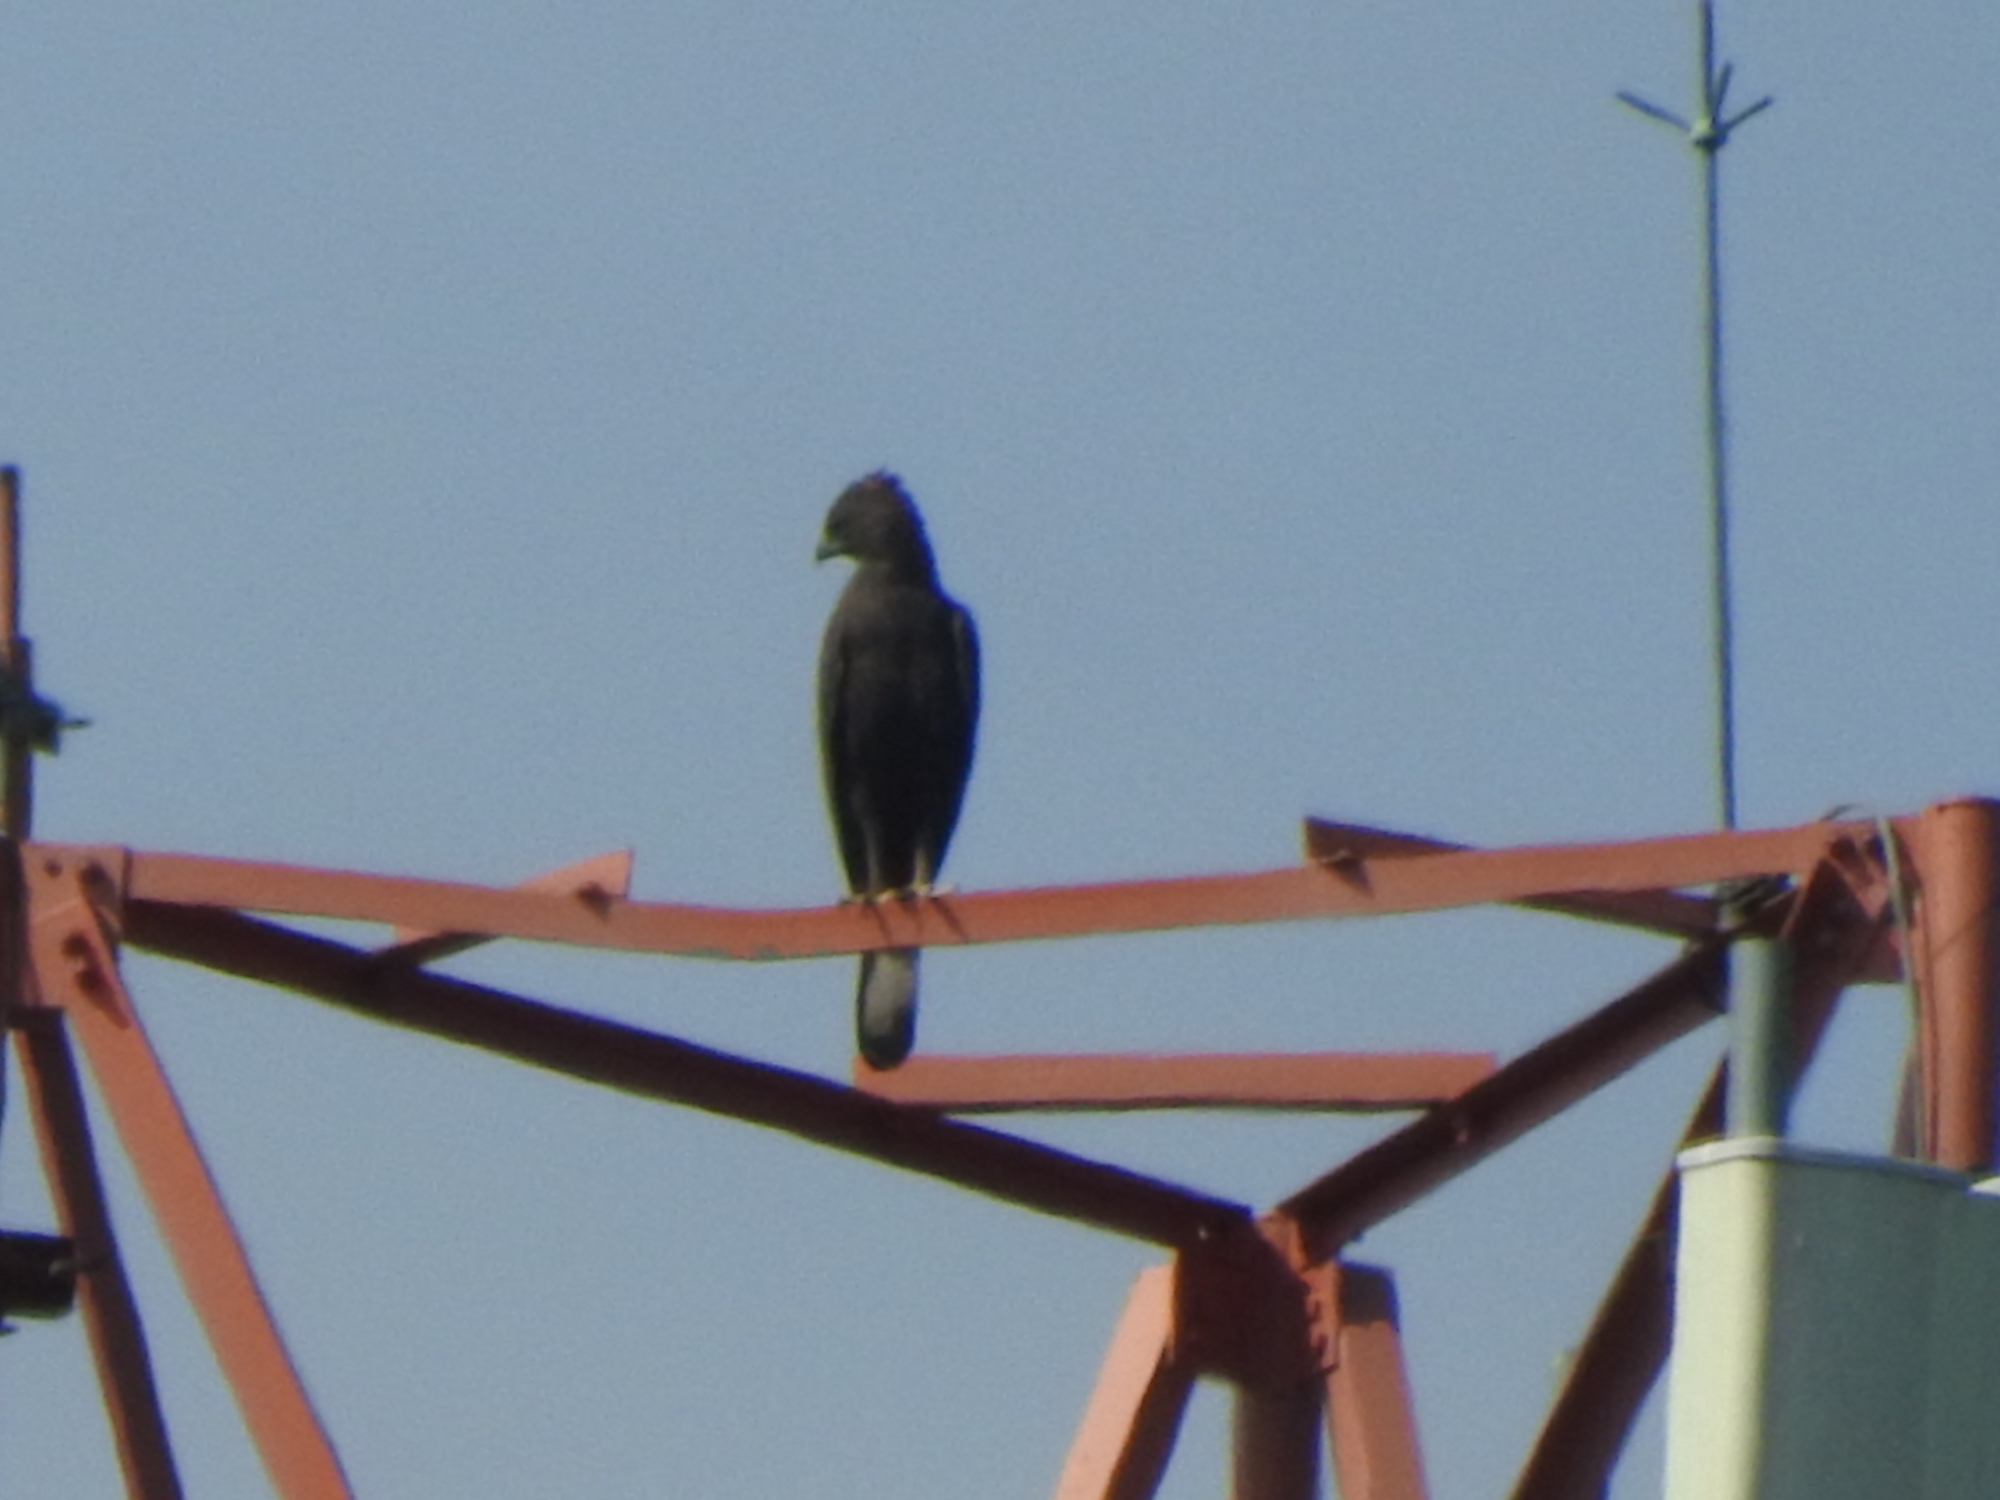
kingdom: Animalia
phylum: Chordata
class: Aves
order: Accipitriformes
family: Accipitridae
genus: Nisaetus
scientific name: Nisaetus cirrhatus
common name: Changeable hawk-eagle
